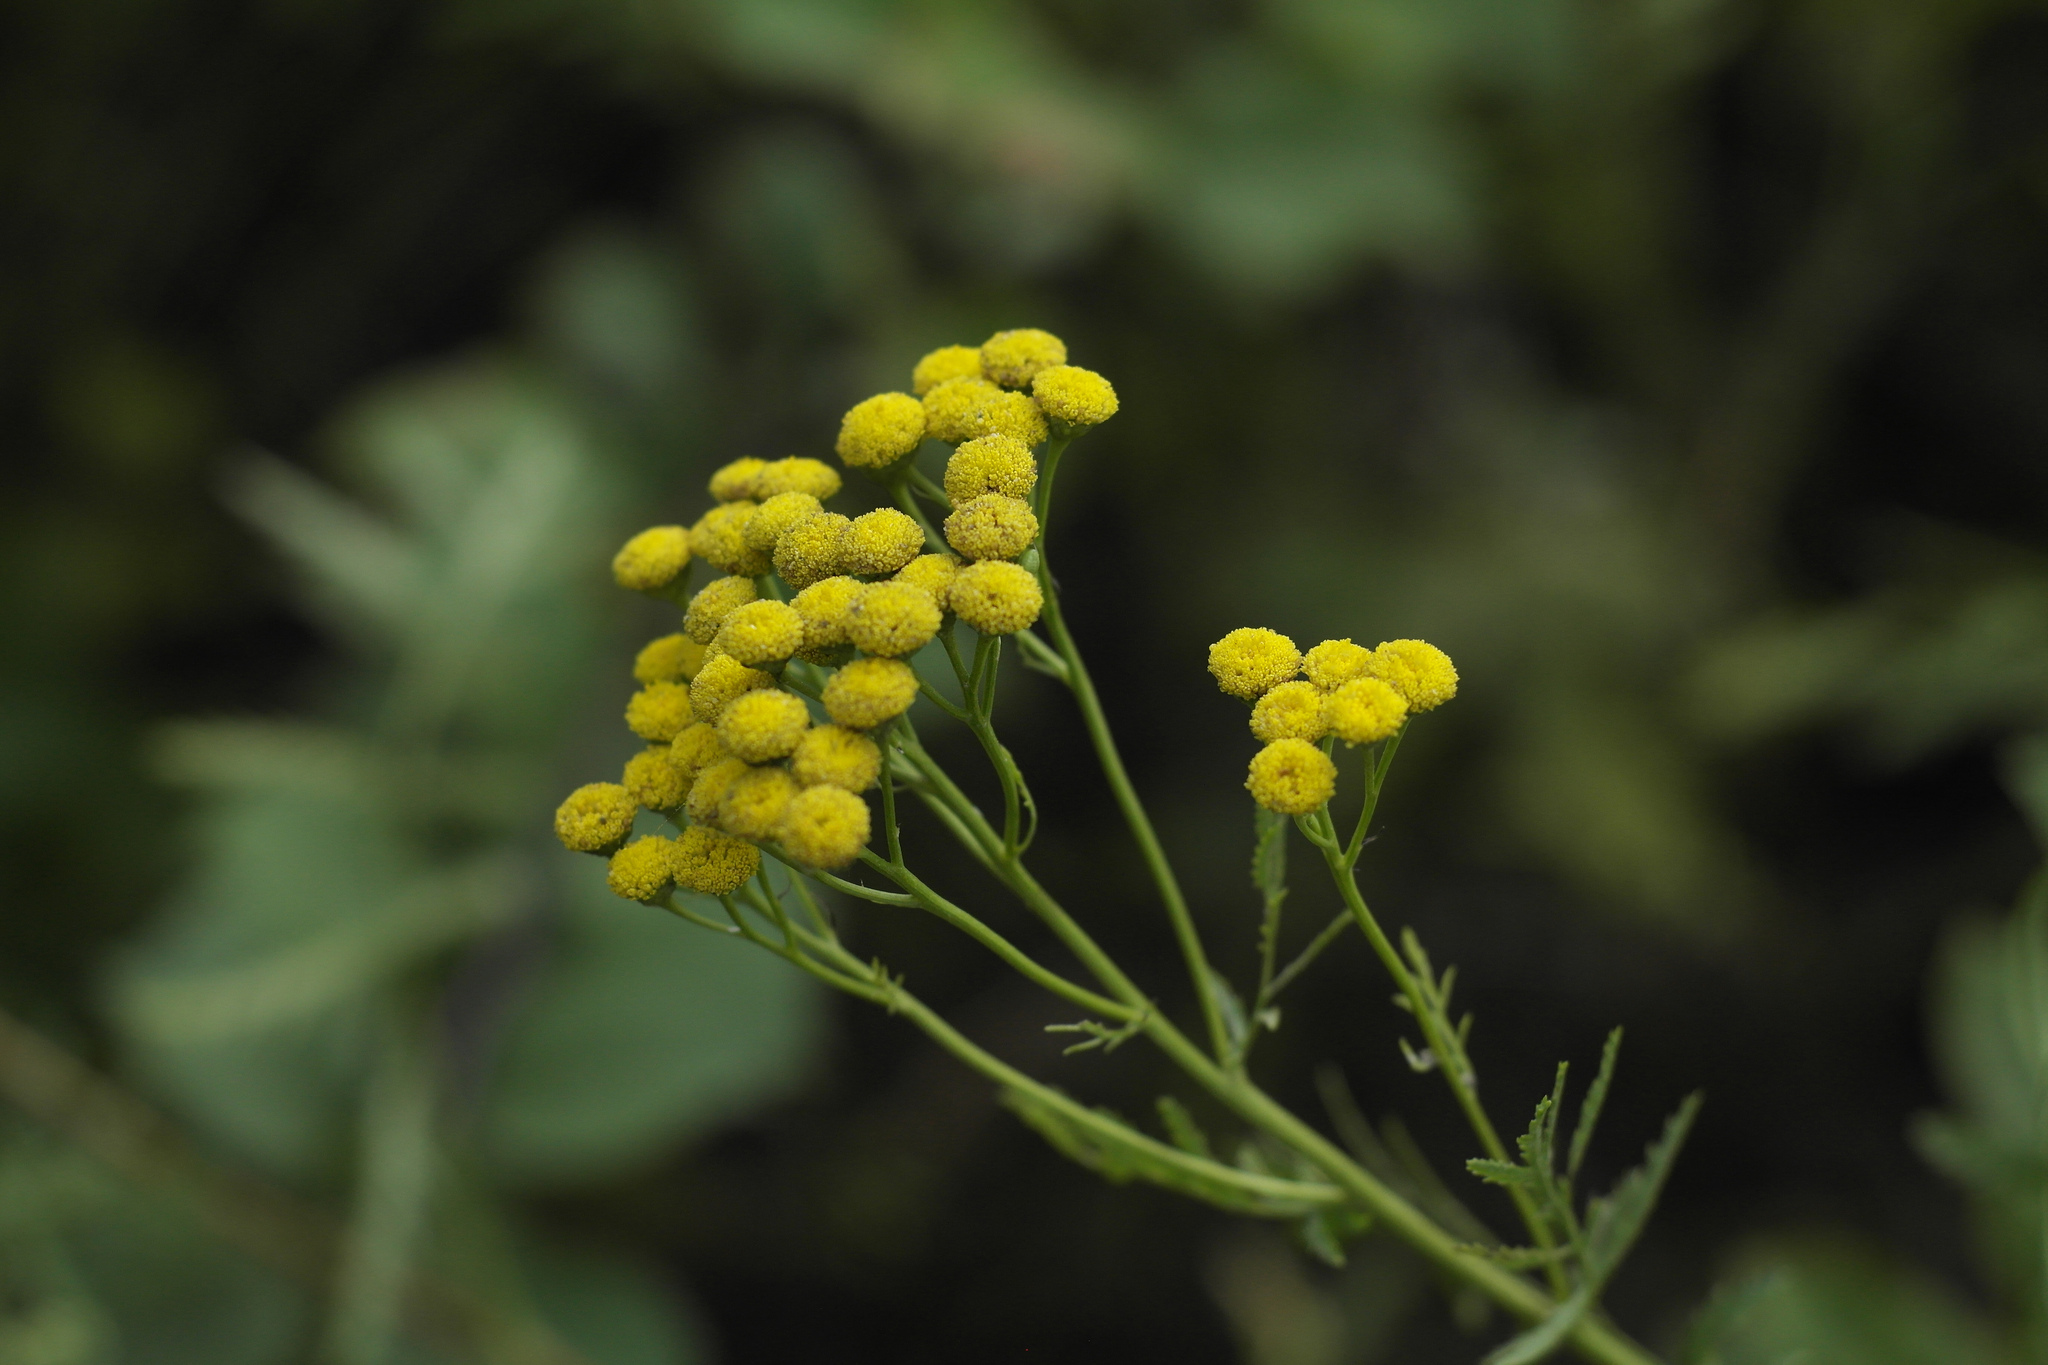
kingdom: Plantae
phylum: Tracheophyta
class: Magnoliopsida
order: Asterales
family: Asteraceae
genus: Tanacetum
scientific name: Tanacetum vulgare
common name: Common tansy
